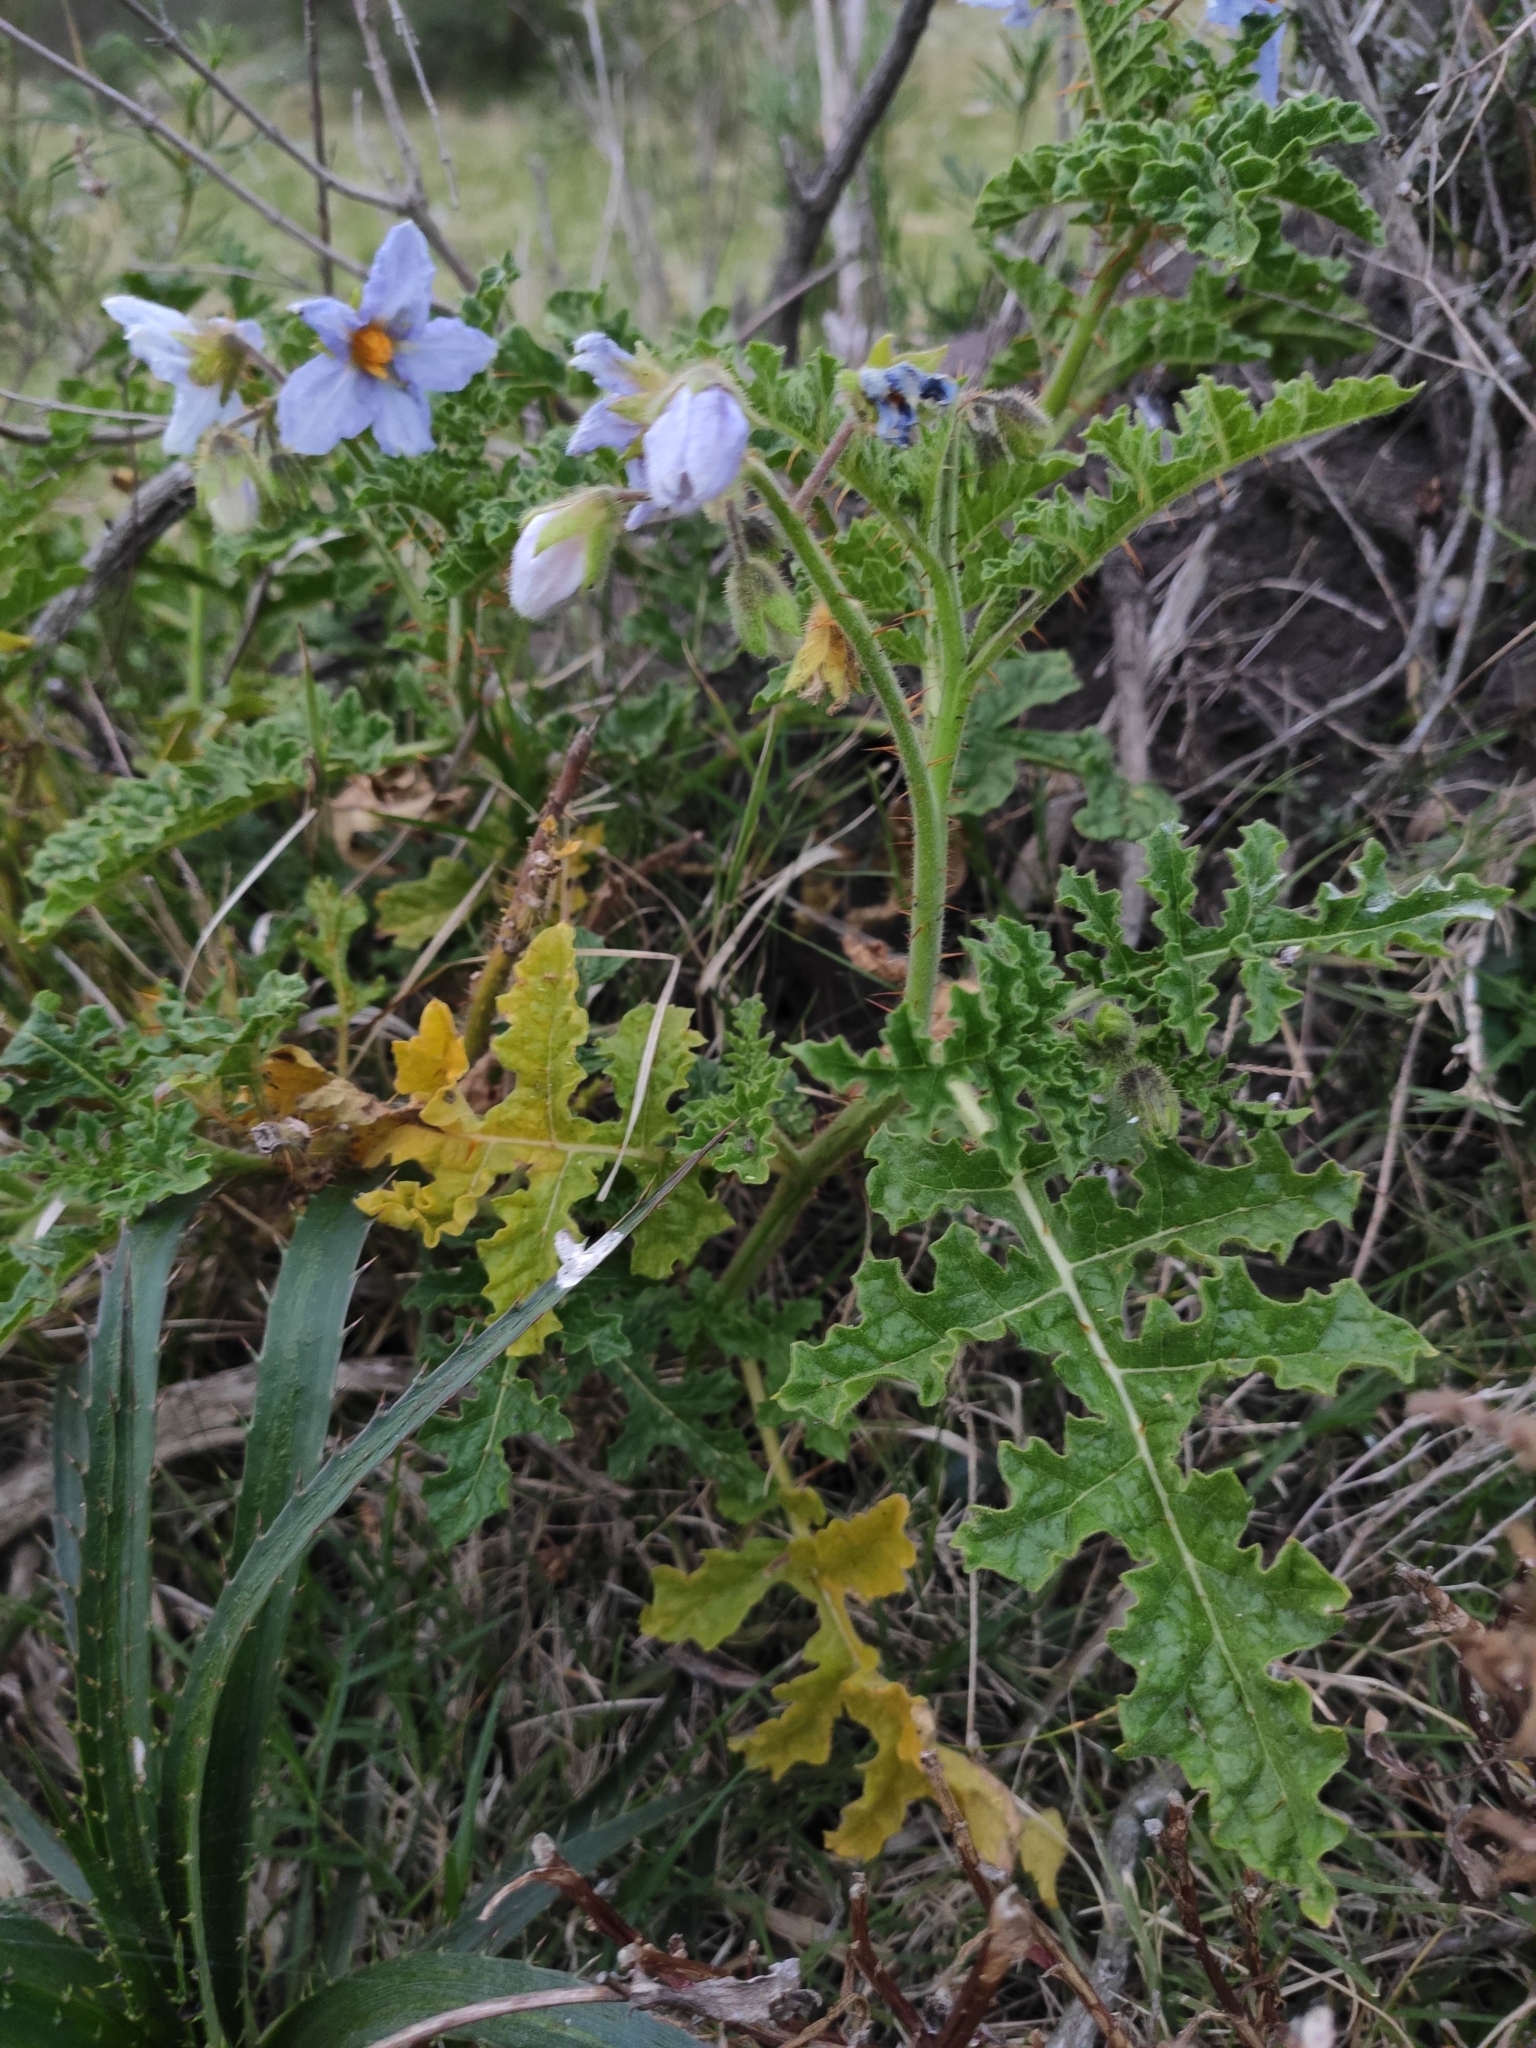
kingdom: Plantae
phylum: Tracheophyta
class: Magnoliopsida
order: Solanales
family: Solanaceae
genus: Solanum
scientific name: Solanum sisymbriifolium
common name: Red buffalo-bur
